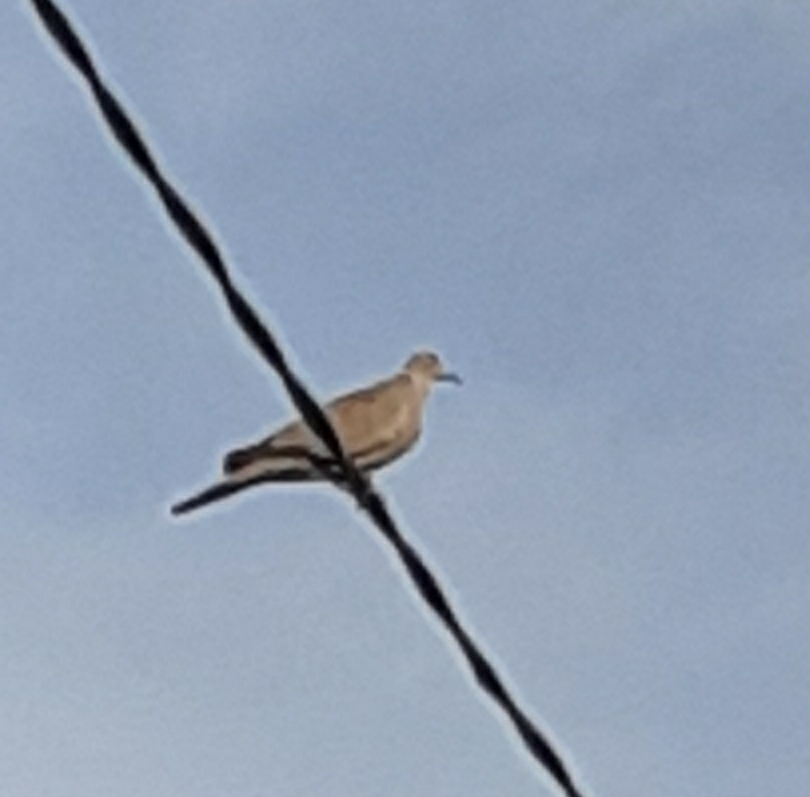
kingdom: Animalia
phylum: Chordata
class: Aves
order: Columbiformes
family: Columbidae
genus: Streptopelia
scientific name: Streptopelia decaocto
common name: Eurasian collared dove
